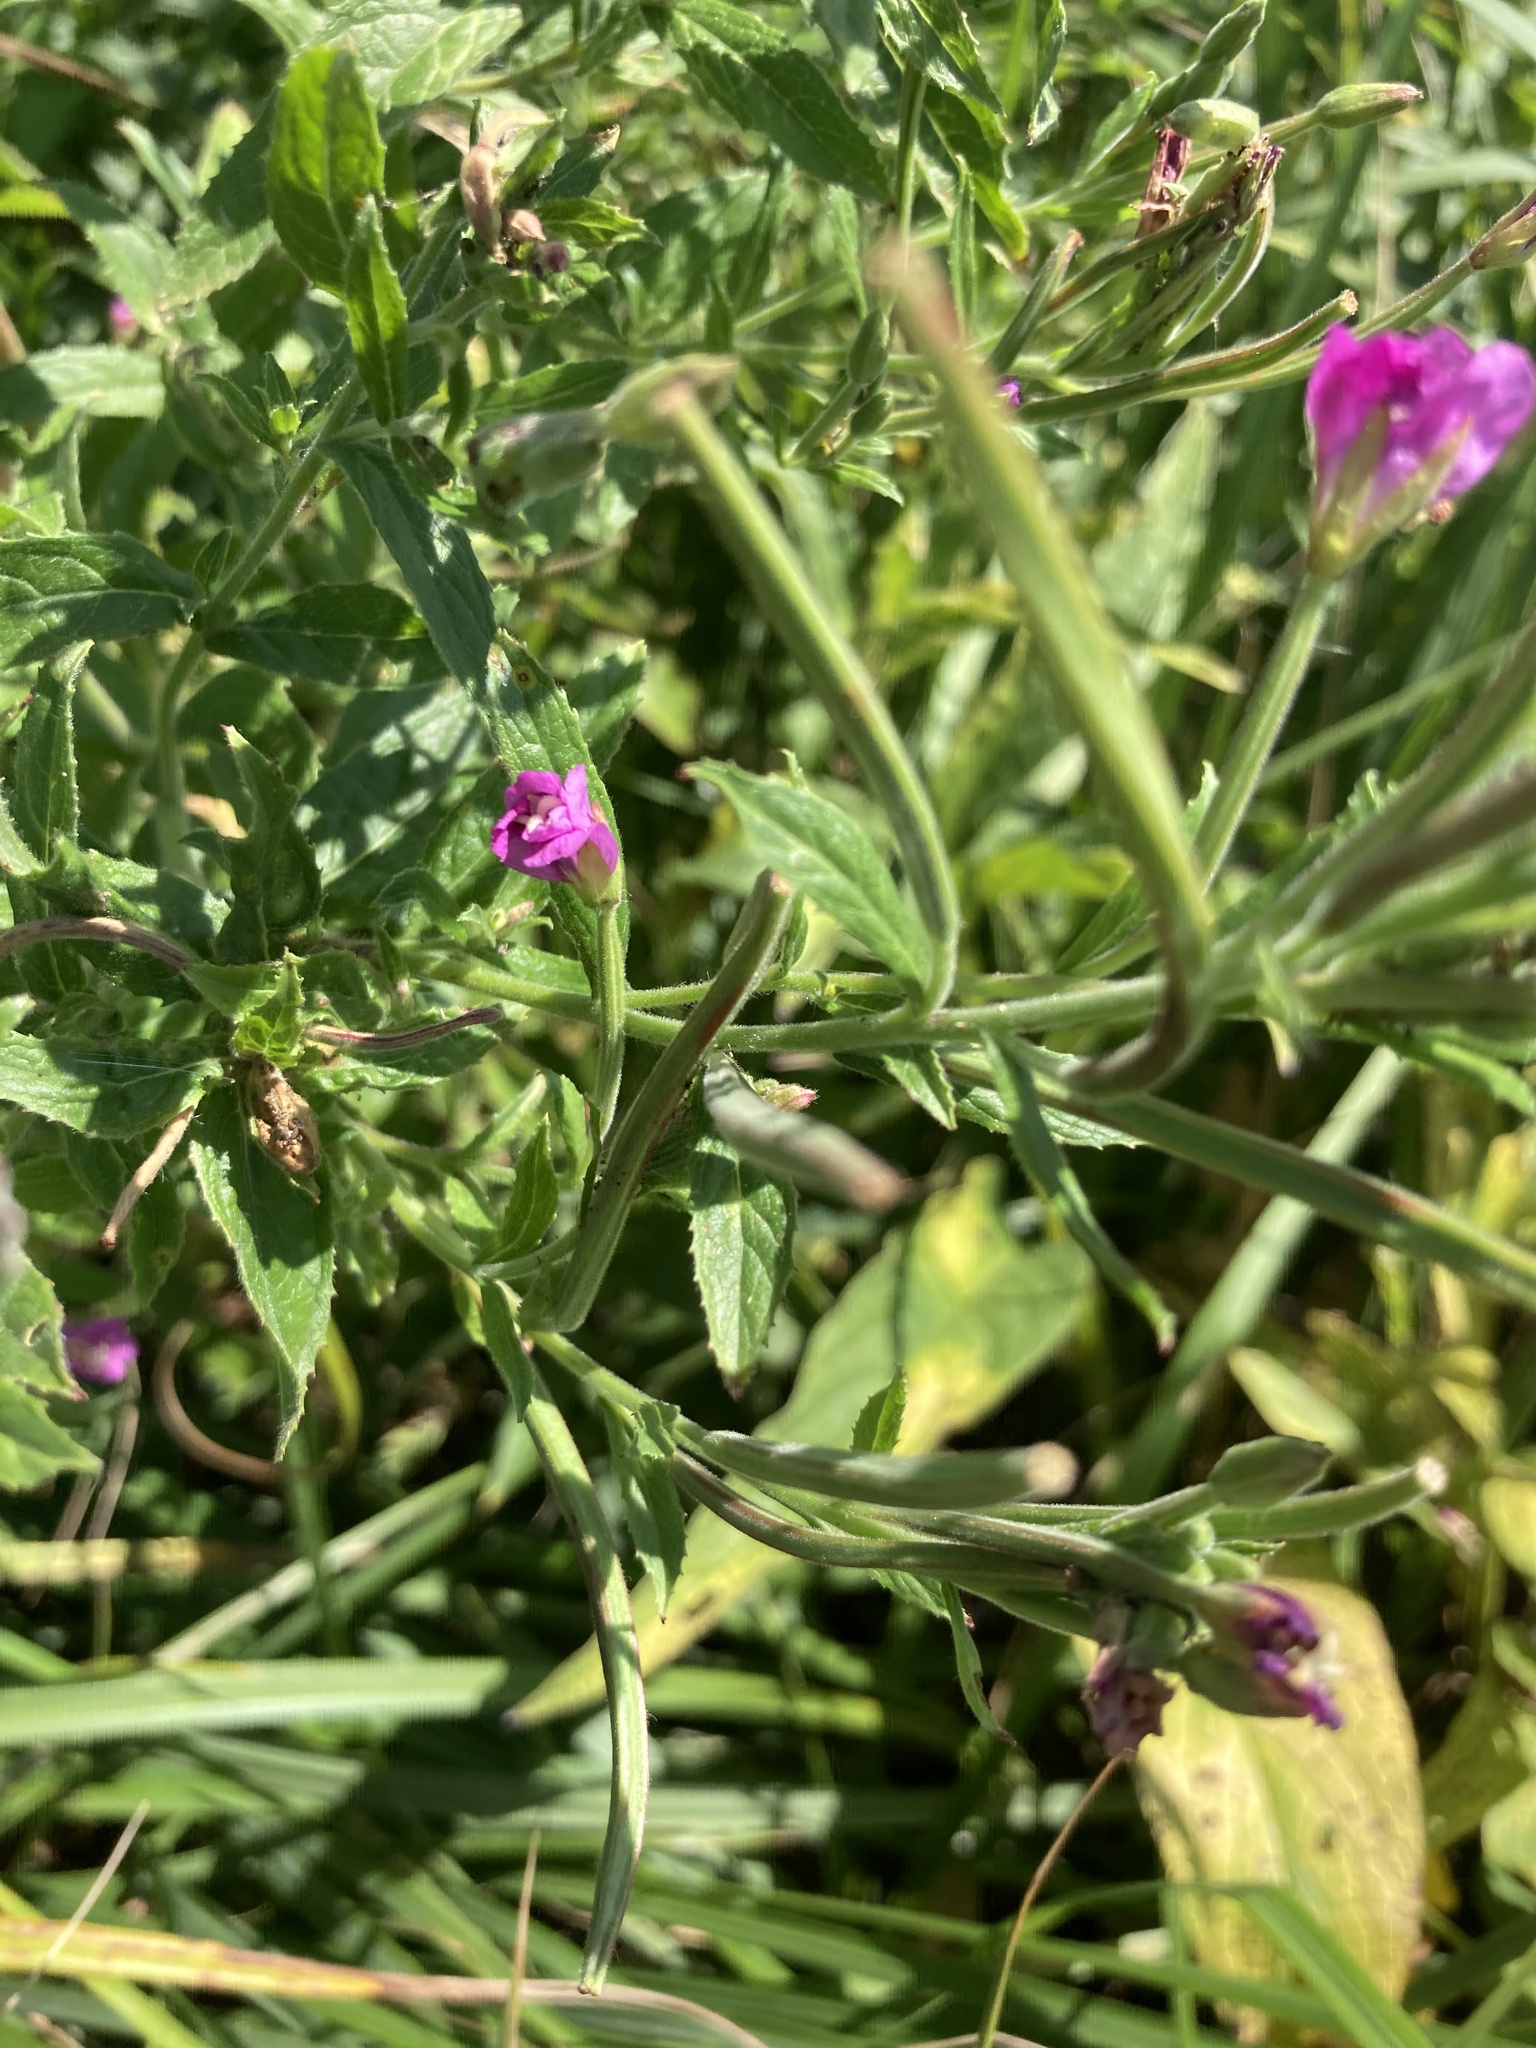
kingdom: Plantae
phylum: Tracheophyta
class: Magnoliopsida
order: Myrtales
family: Onagraceae
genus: Epilobium
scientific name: Epilobium hirsutum
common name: Great willowherb
